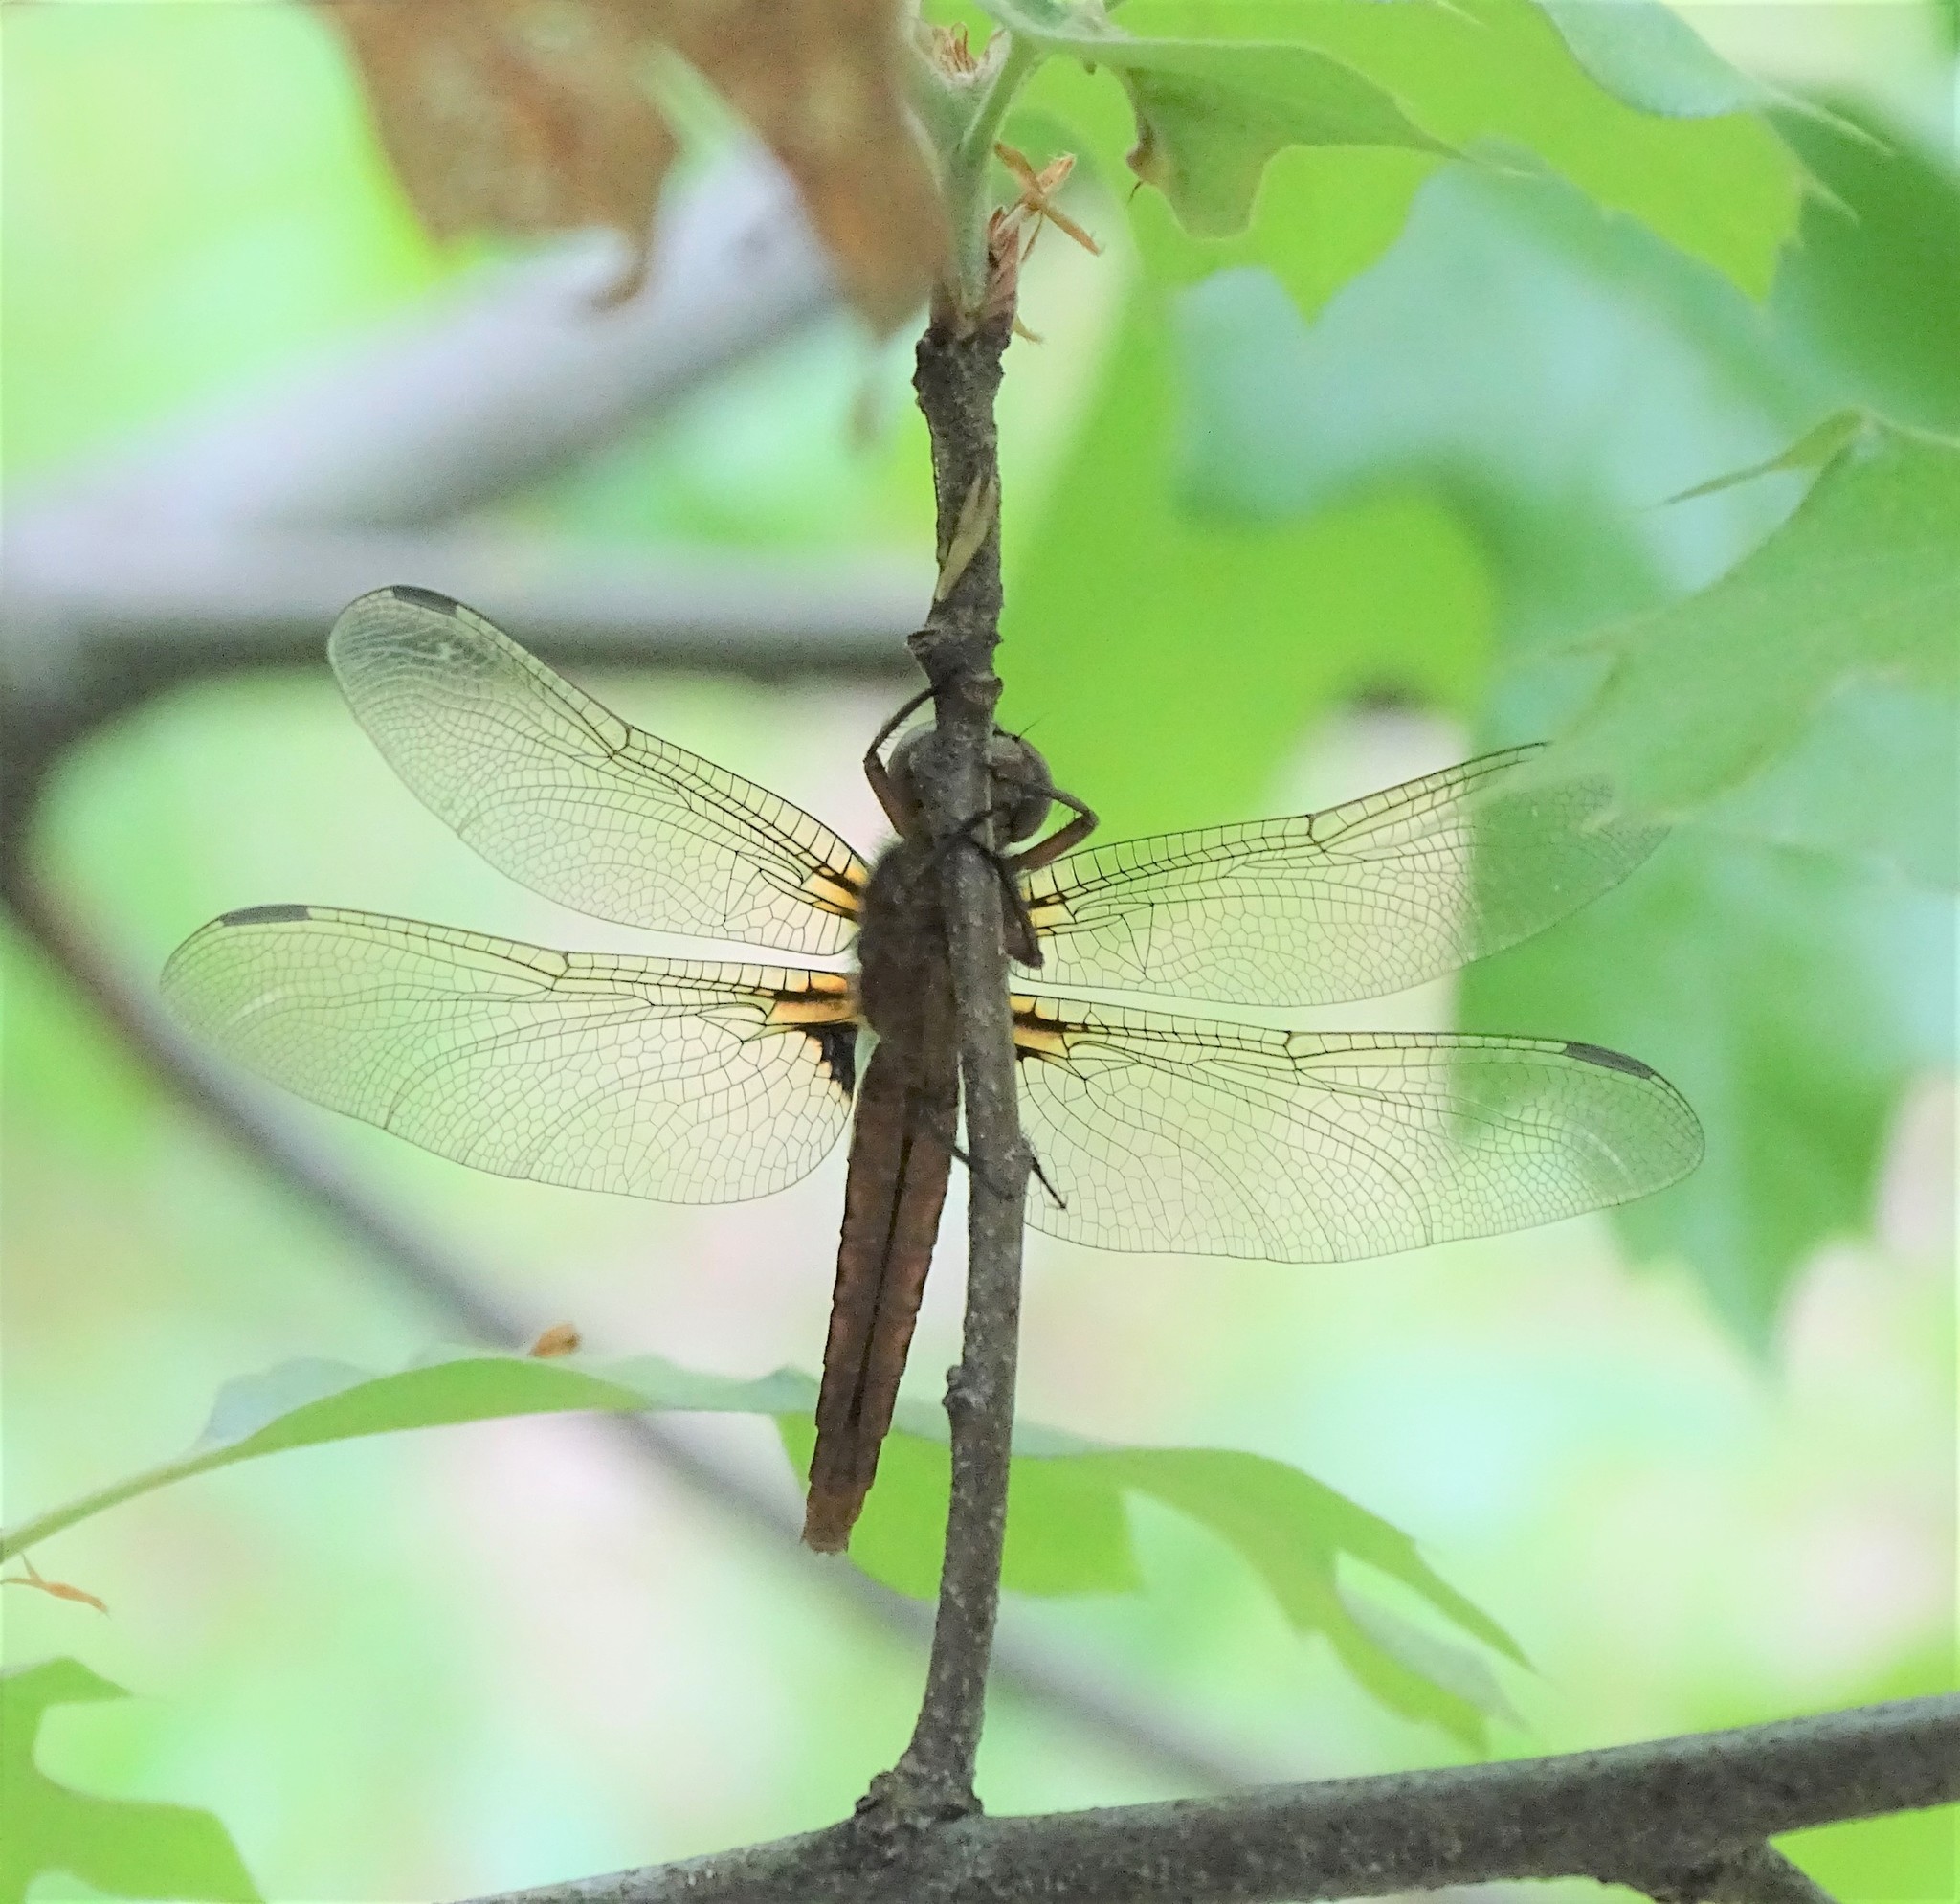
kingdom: Animalia
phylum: Arthropoda
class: Insecta
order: Odonata
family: Libellulidae
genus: Ladona
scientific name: Ladona julia
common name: Chalk-fronted corporal
